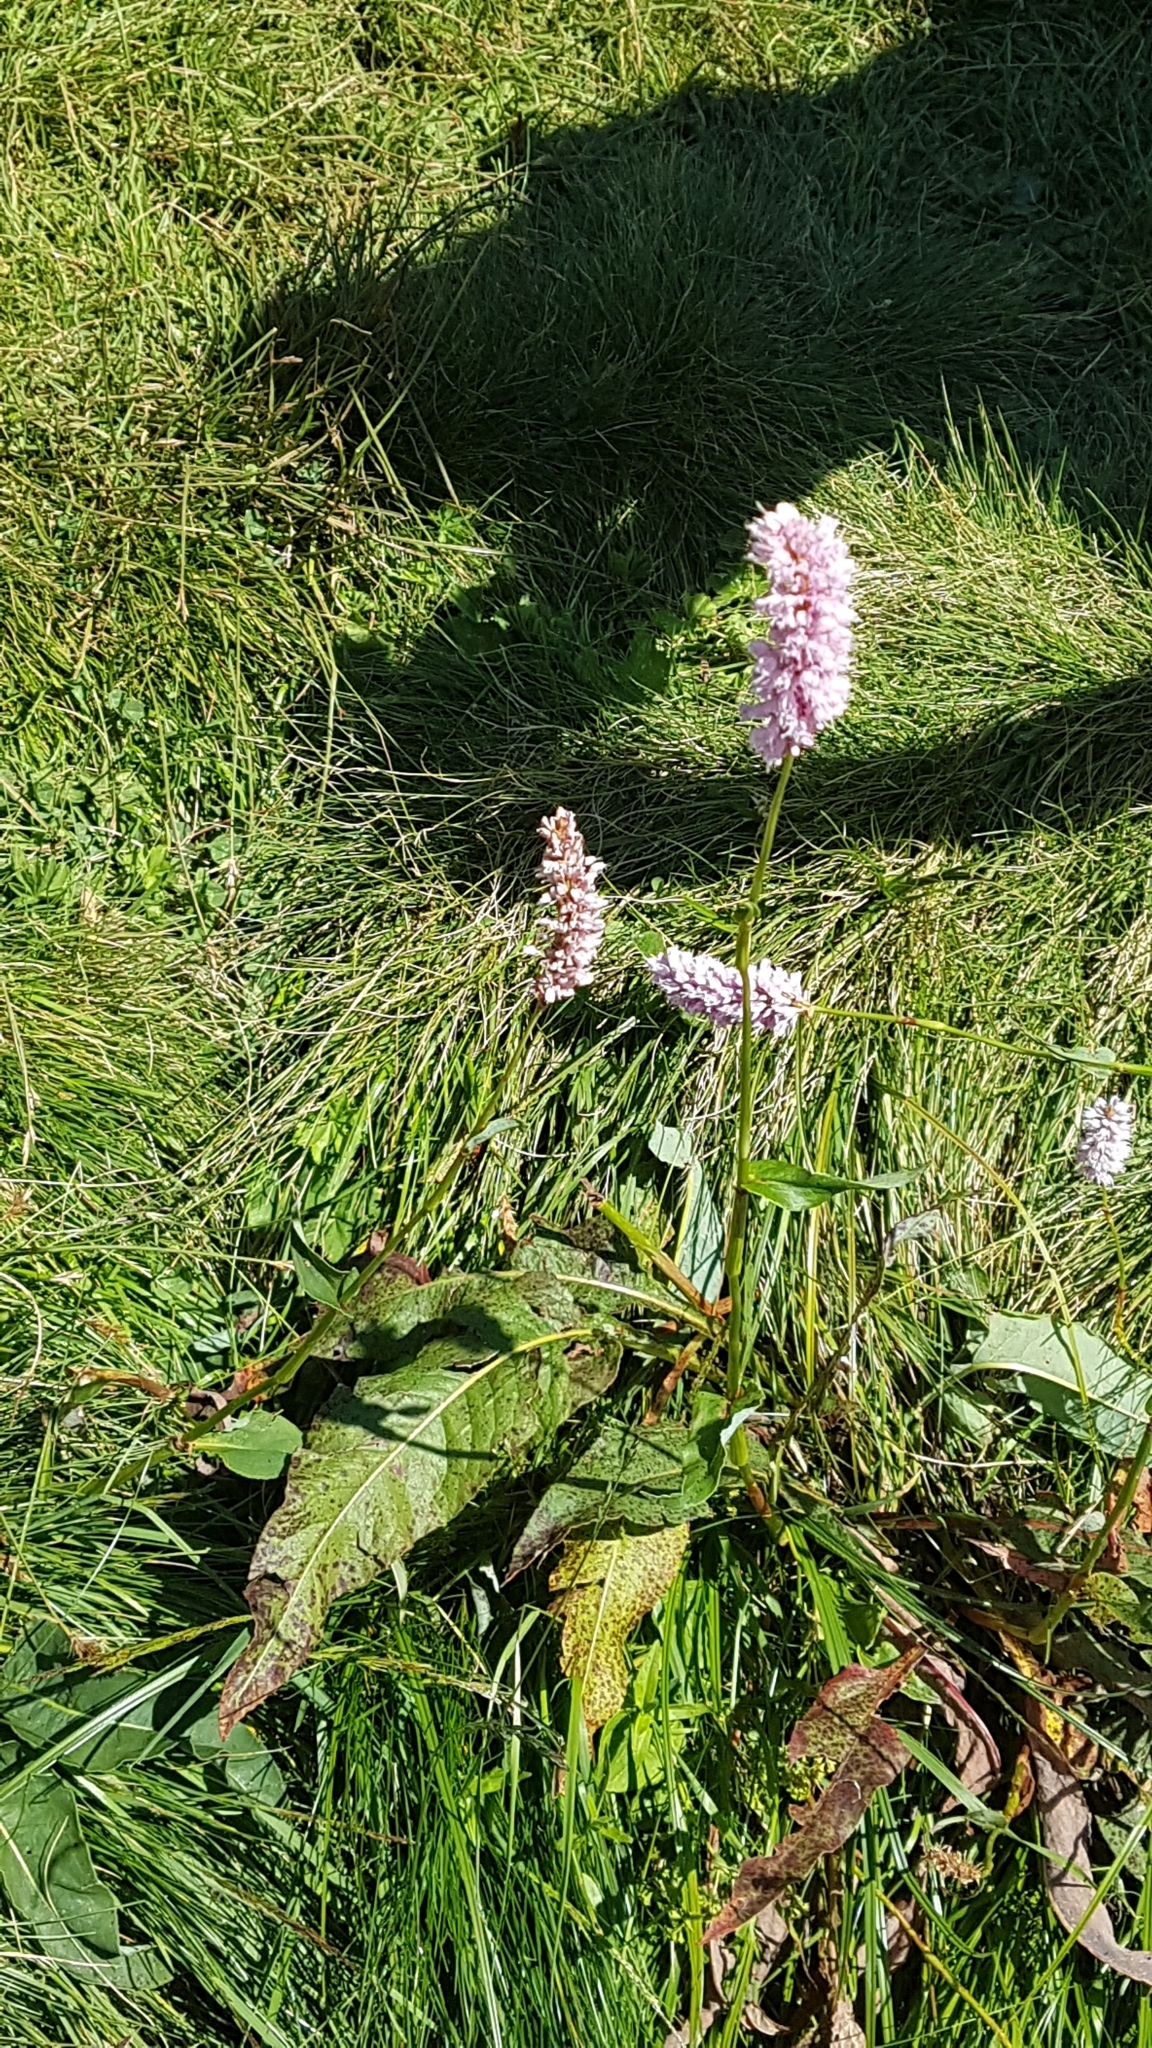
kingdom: Plantae
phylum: Tracheophyta
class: Magnoliopsida
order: Caryophyllales
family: Polygonaceae
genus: Bistorta
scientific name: Bistorta officinalis
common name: Common bistort
